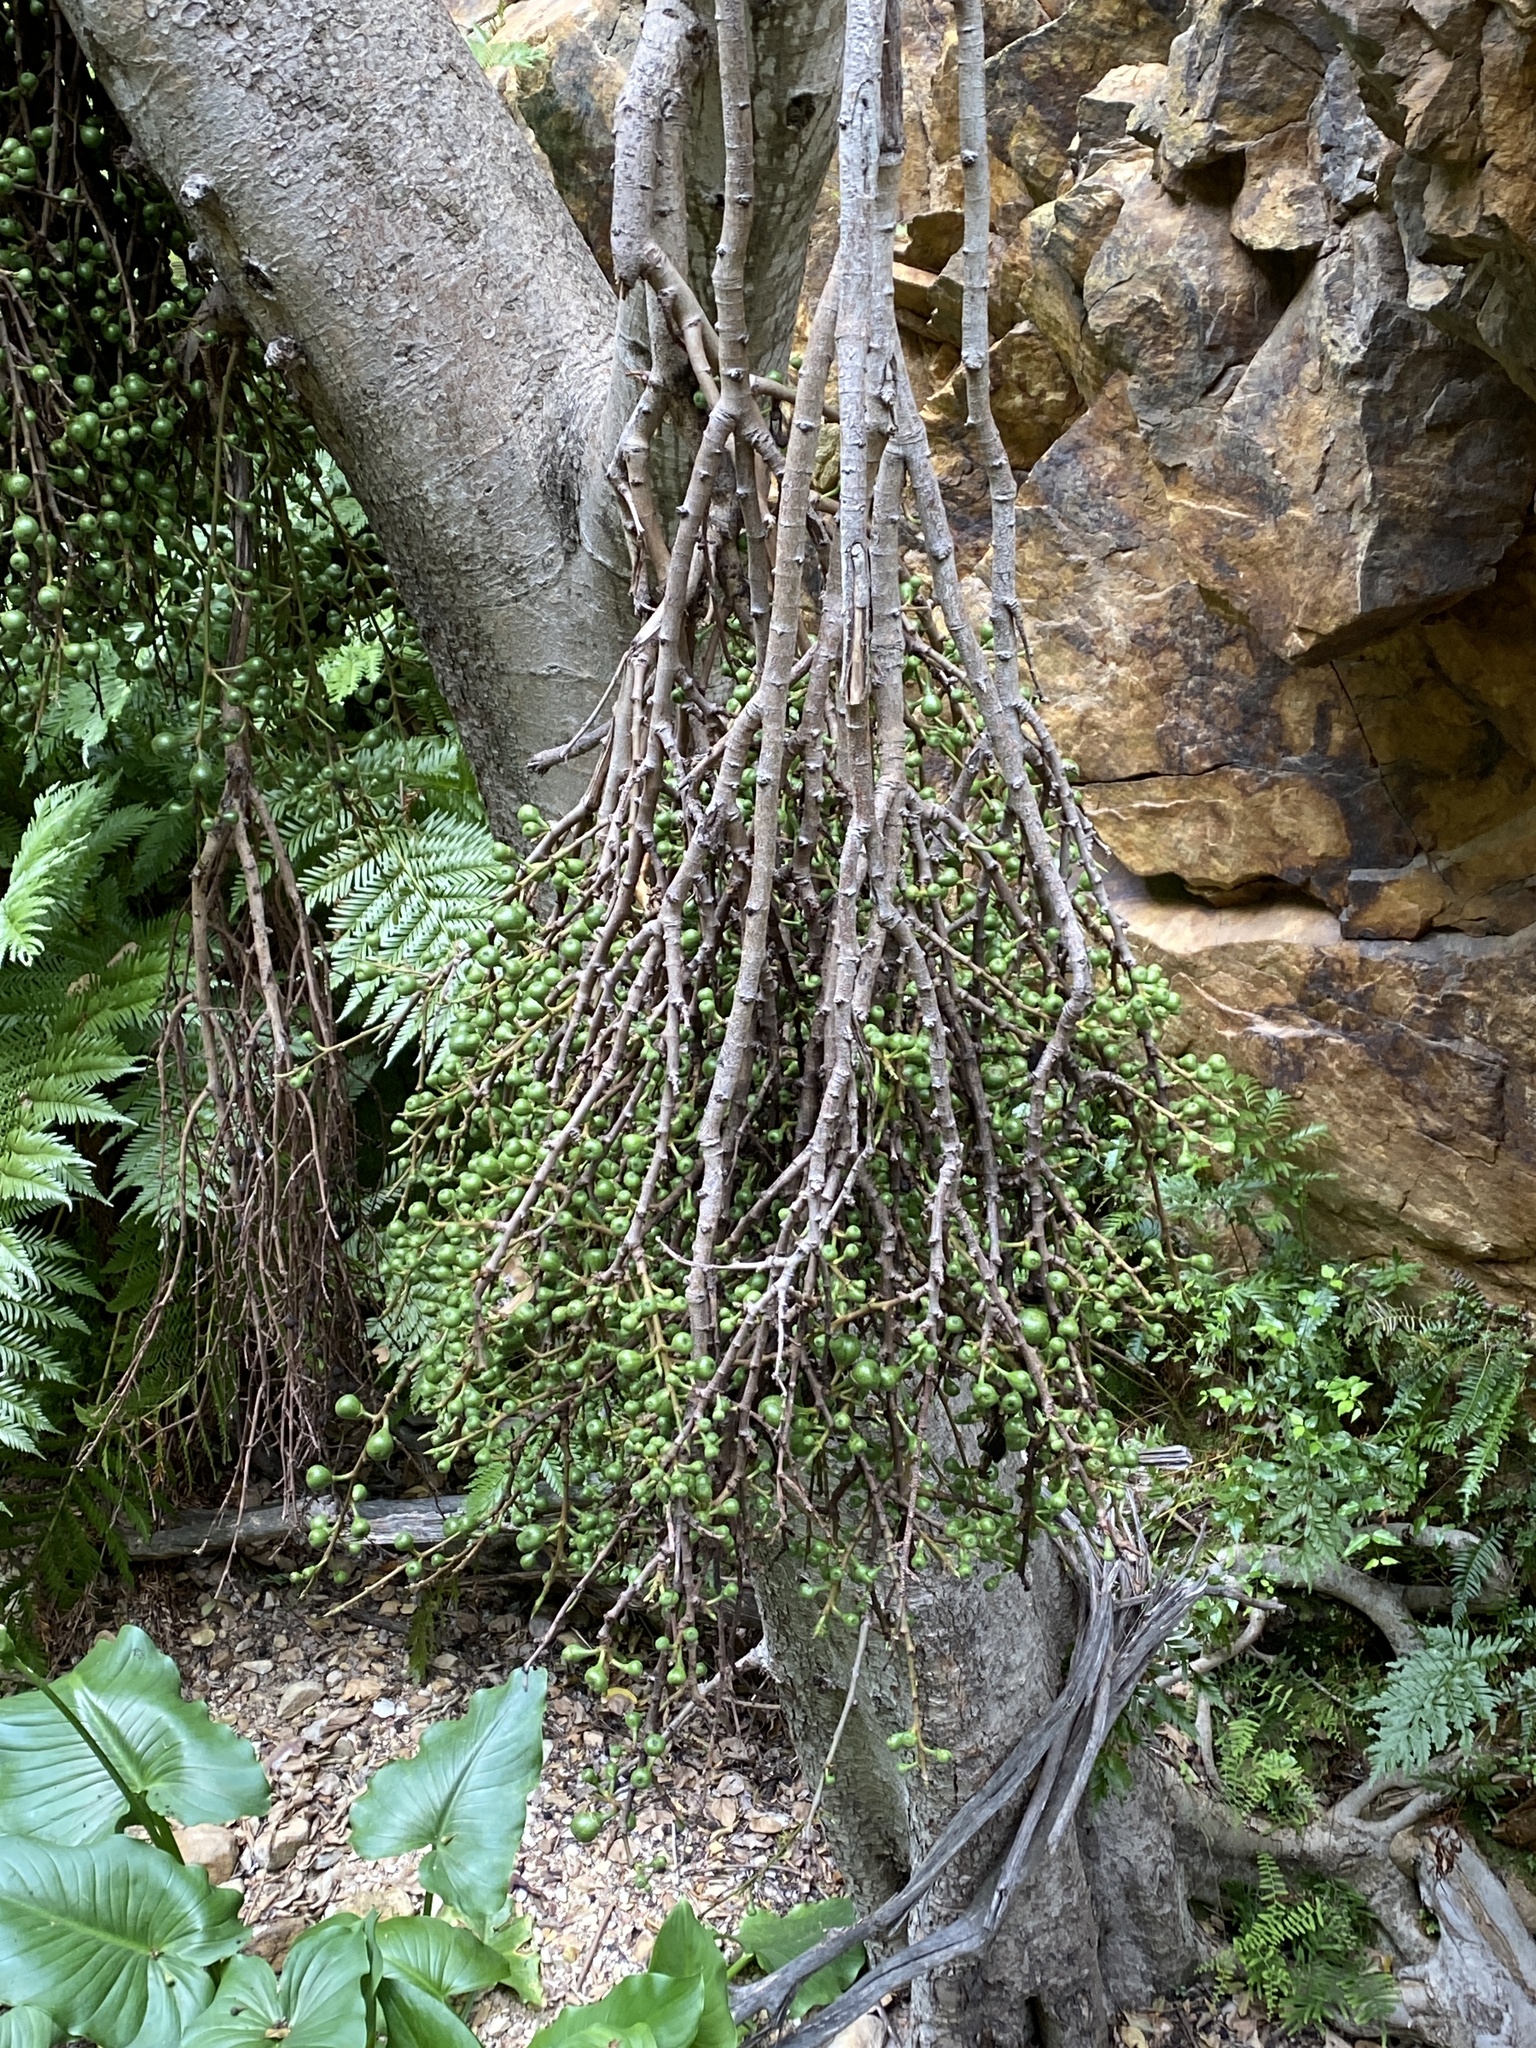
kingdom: Plantae
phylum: Tracheophyta
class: Magnoliopsida
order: Rosales
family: Moraceae
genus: Ficus
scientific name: Ficus sur
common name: Cape fig
